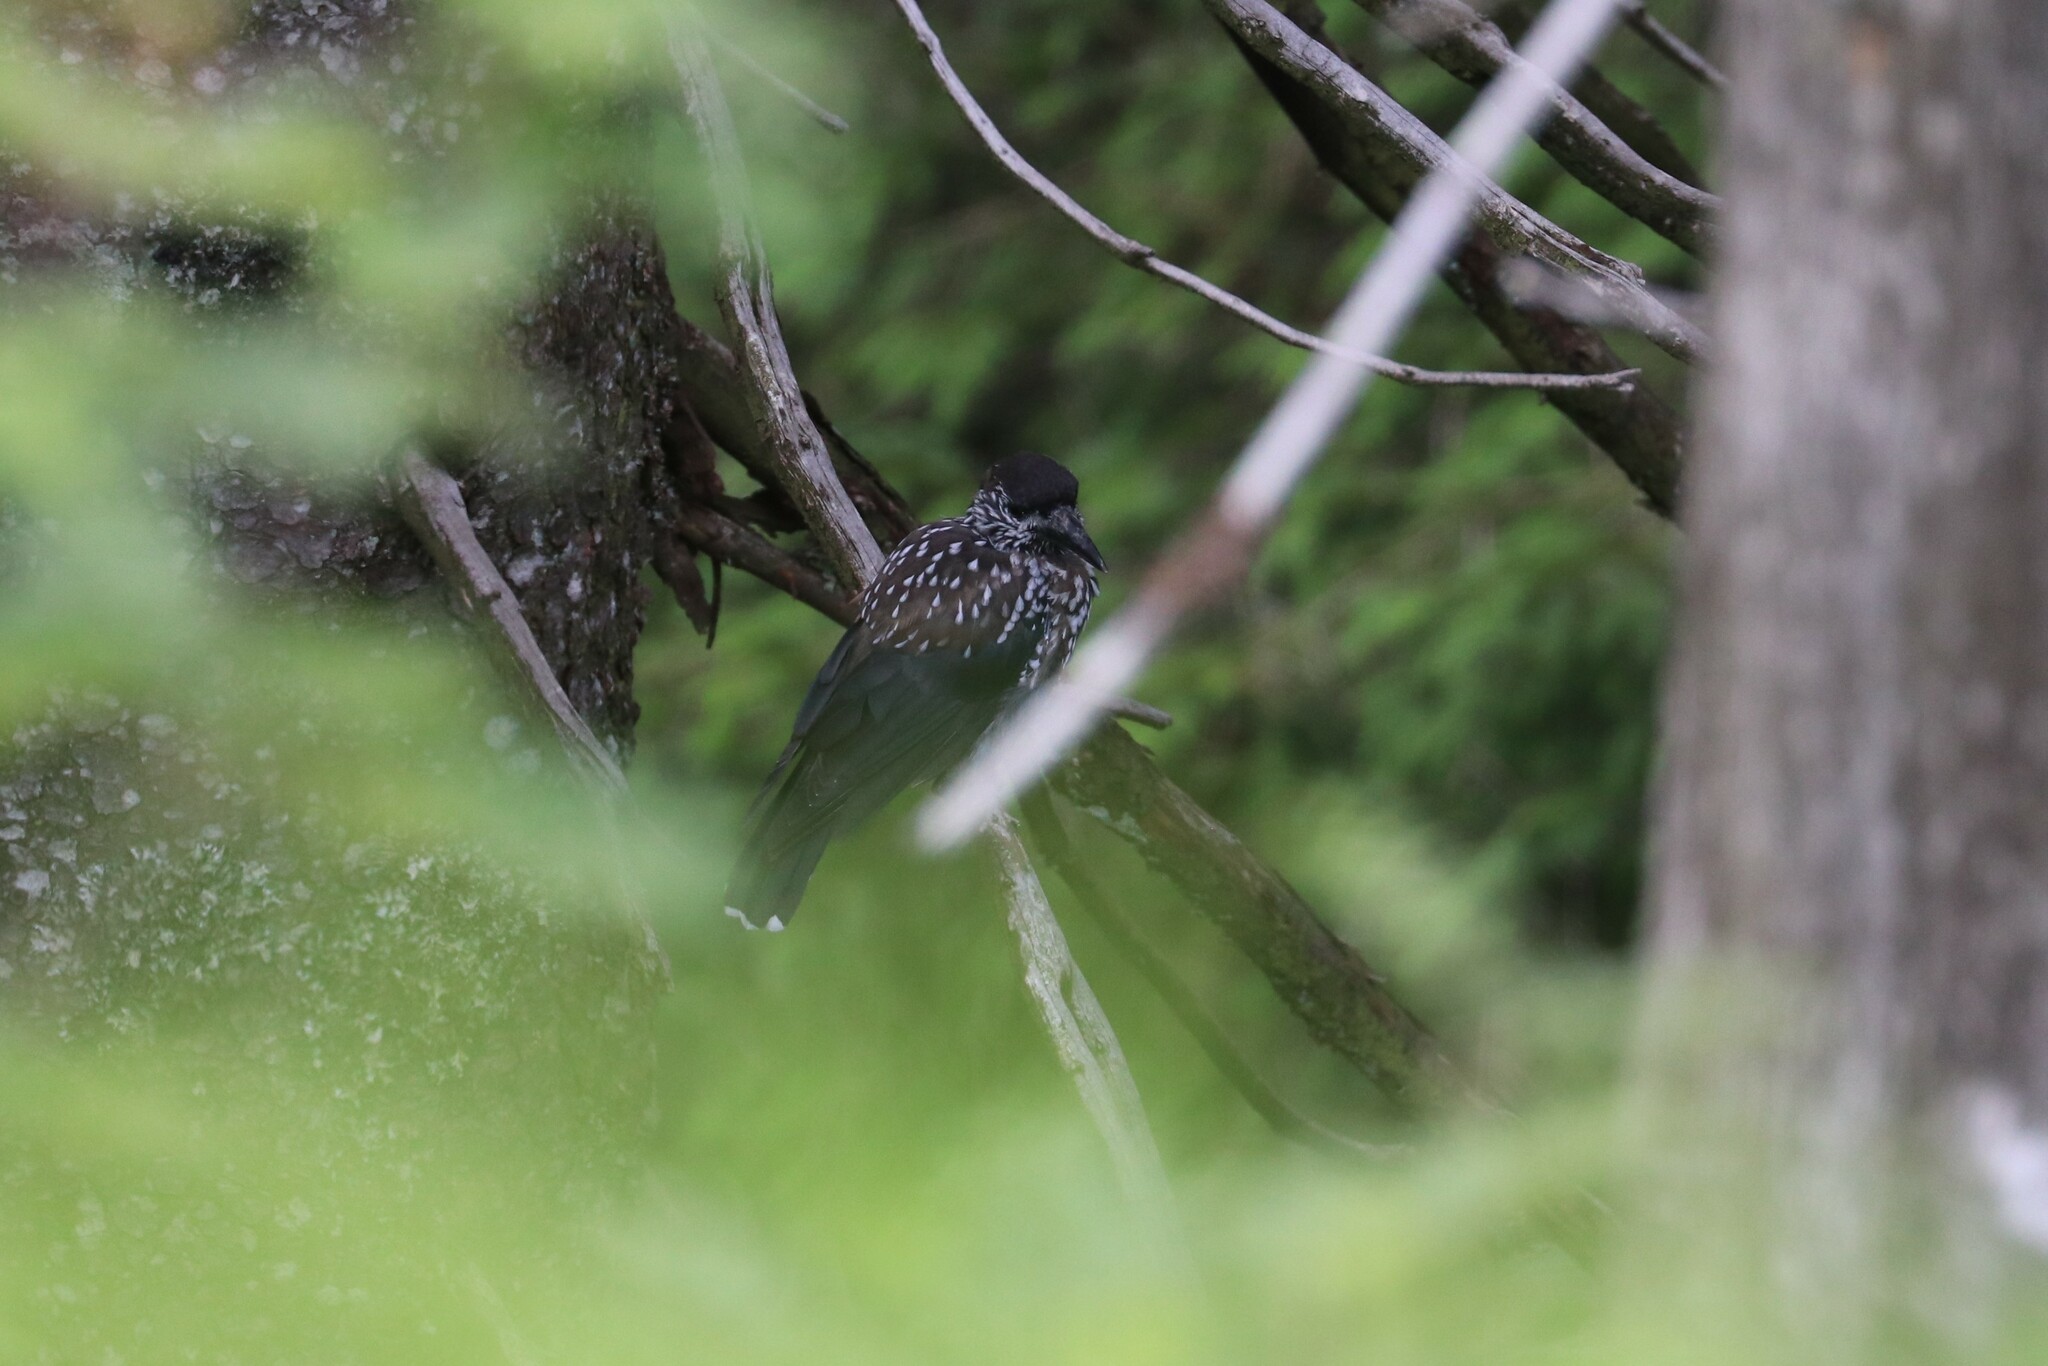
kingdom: Animalia
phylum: Chordata
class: Aves
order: Passeriformes
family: Corvidae
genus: Nucifraga
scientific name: Nucifraga caryocatactes
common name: Spotted nutcracker
